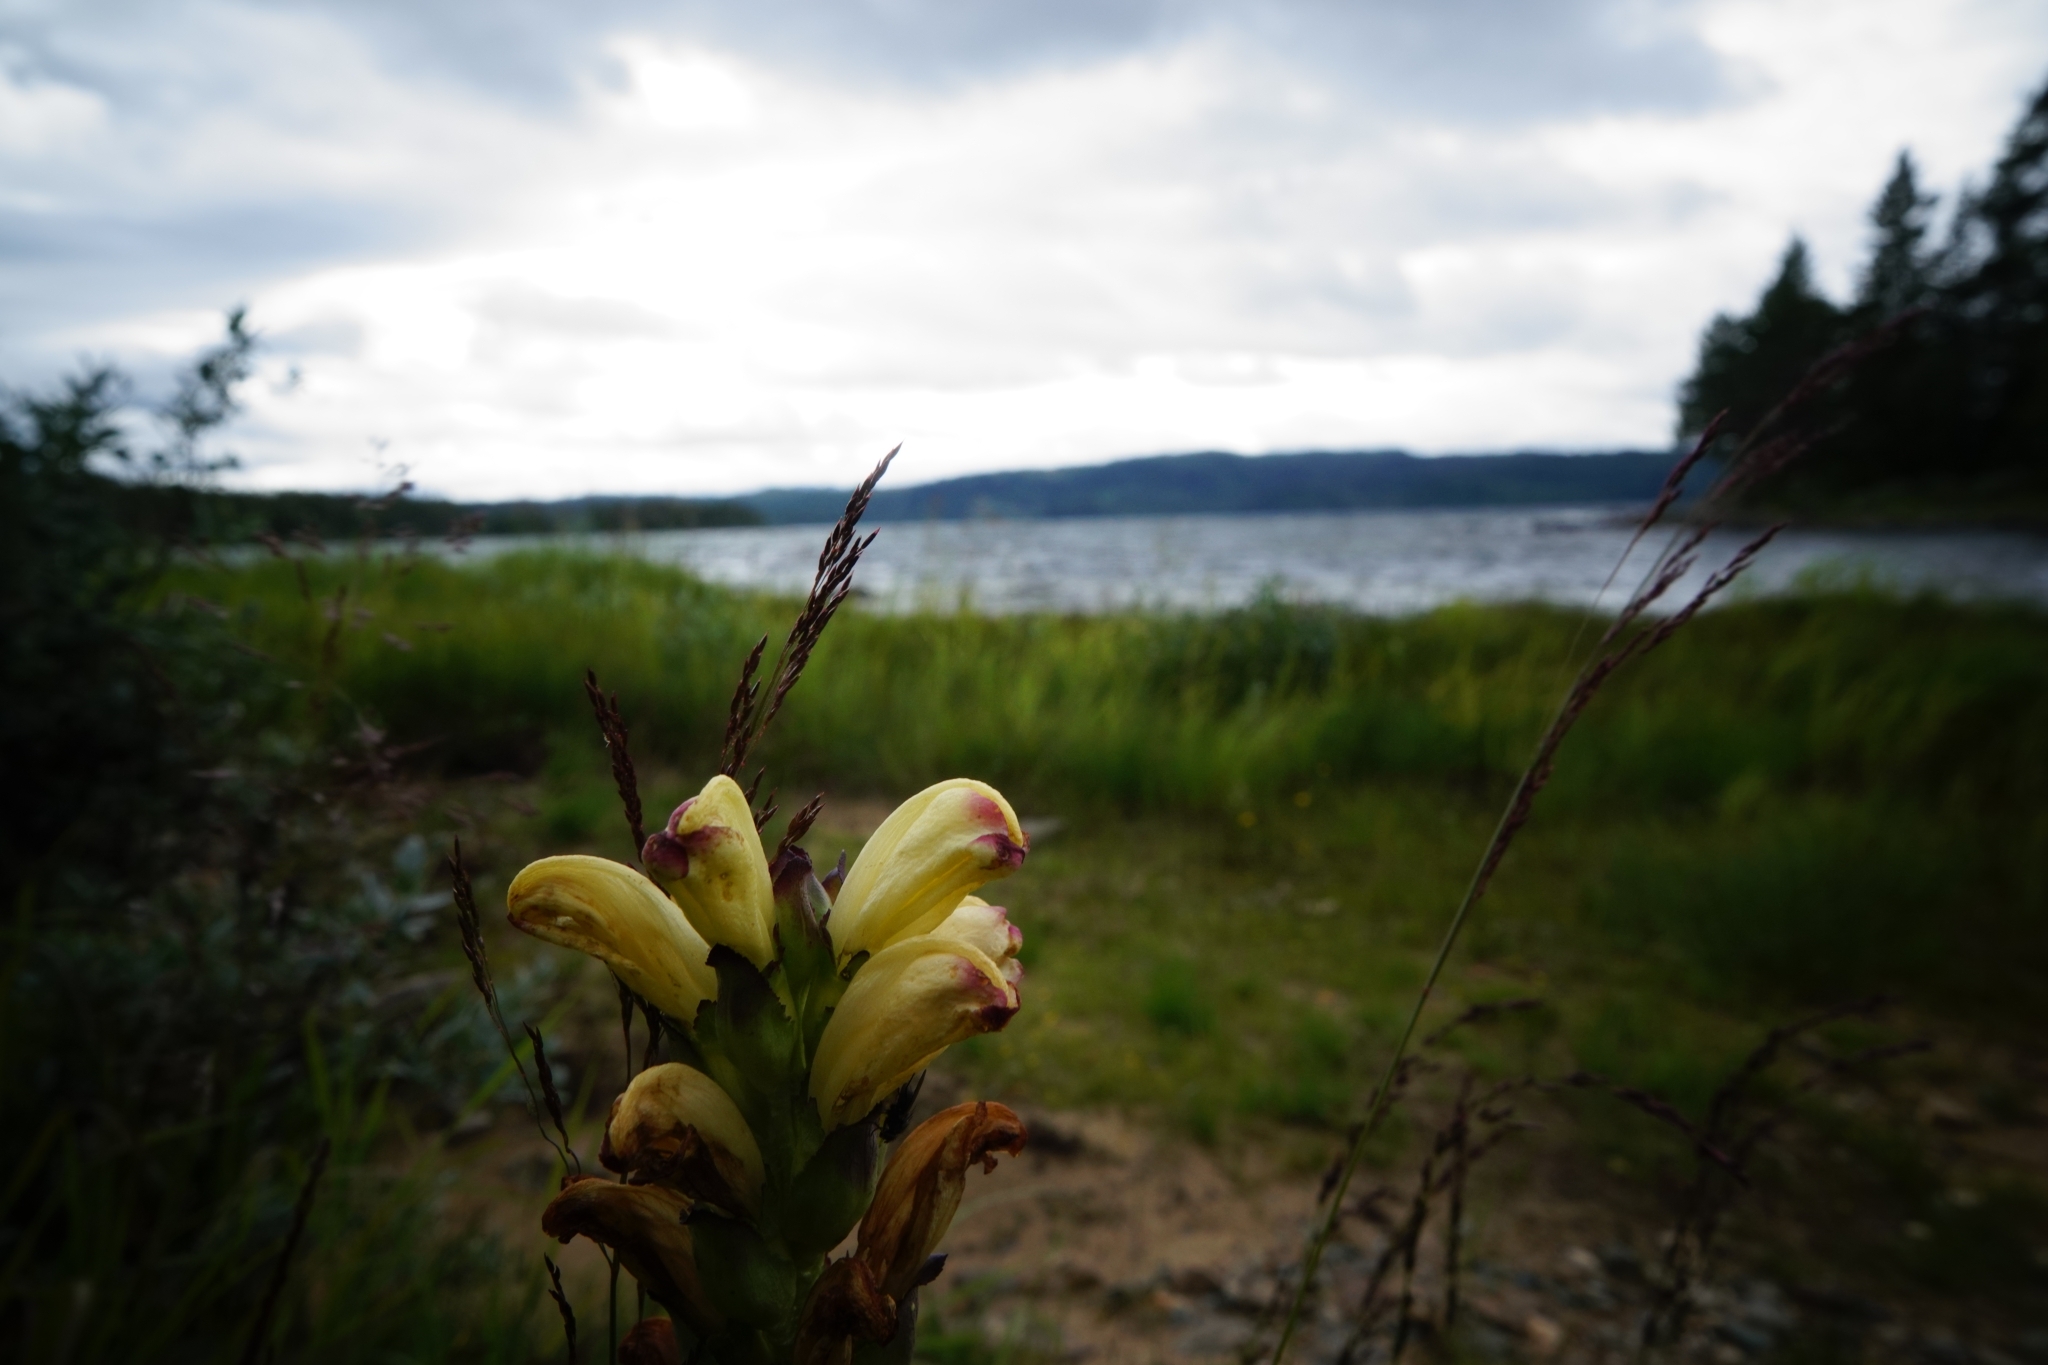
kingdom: Plantae
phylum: Tracheophyta
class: Magnoliopsida
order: Lamiales
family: Orobanchaceae
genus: Pedicularis
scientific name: Pedicularis sceptrum-carolinum
